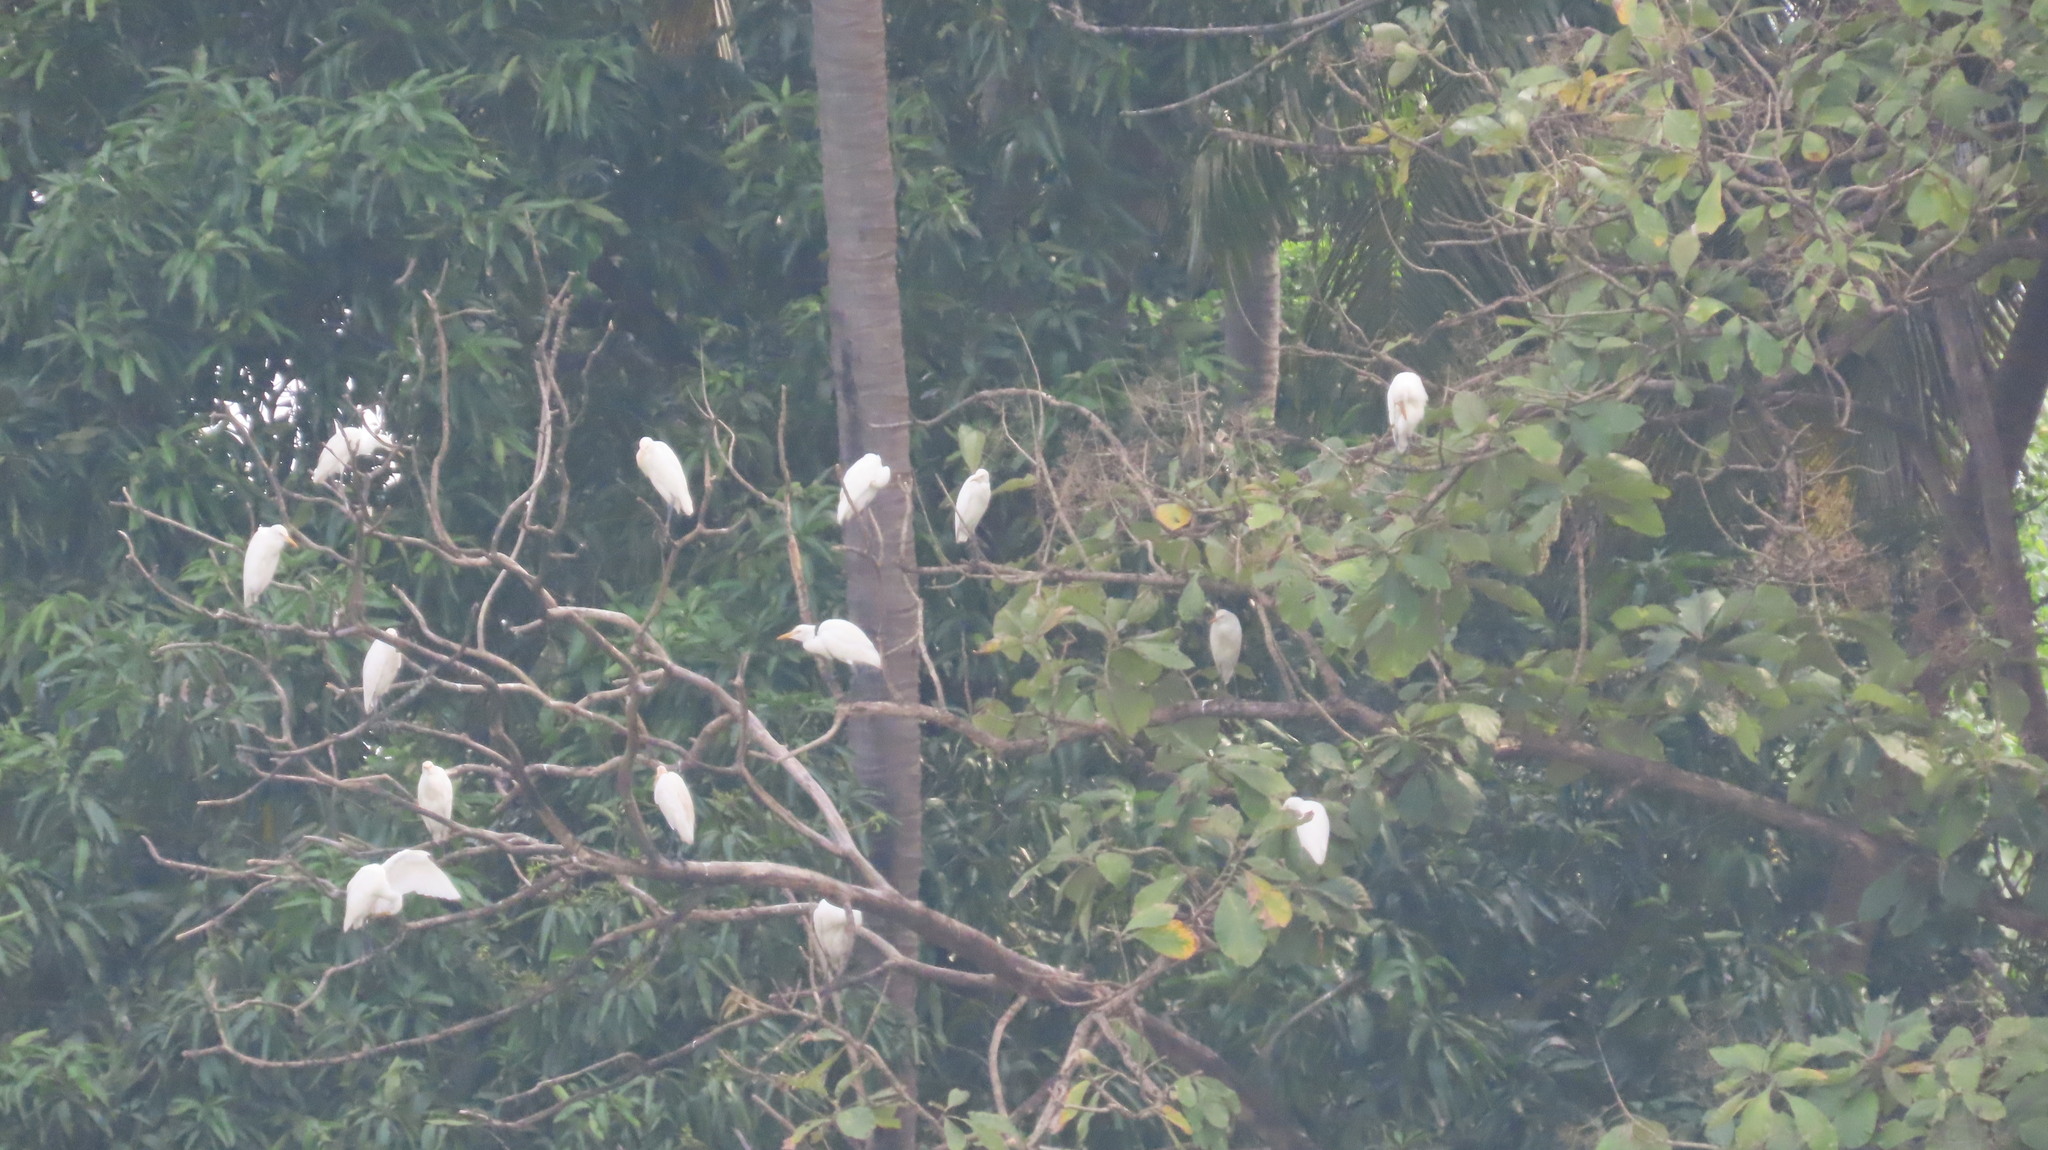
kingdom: Animalia
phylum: Chordata
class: Aves
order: Pelecaniformes
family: Ardeidae
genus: Bubulcus
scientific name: Bubulcus coromandus
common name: Eastern cattle egret
